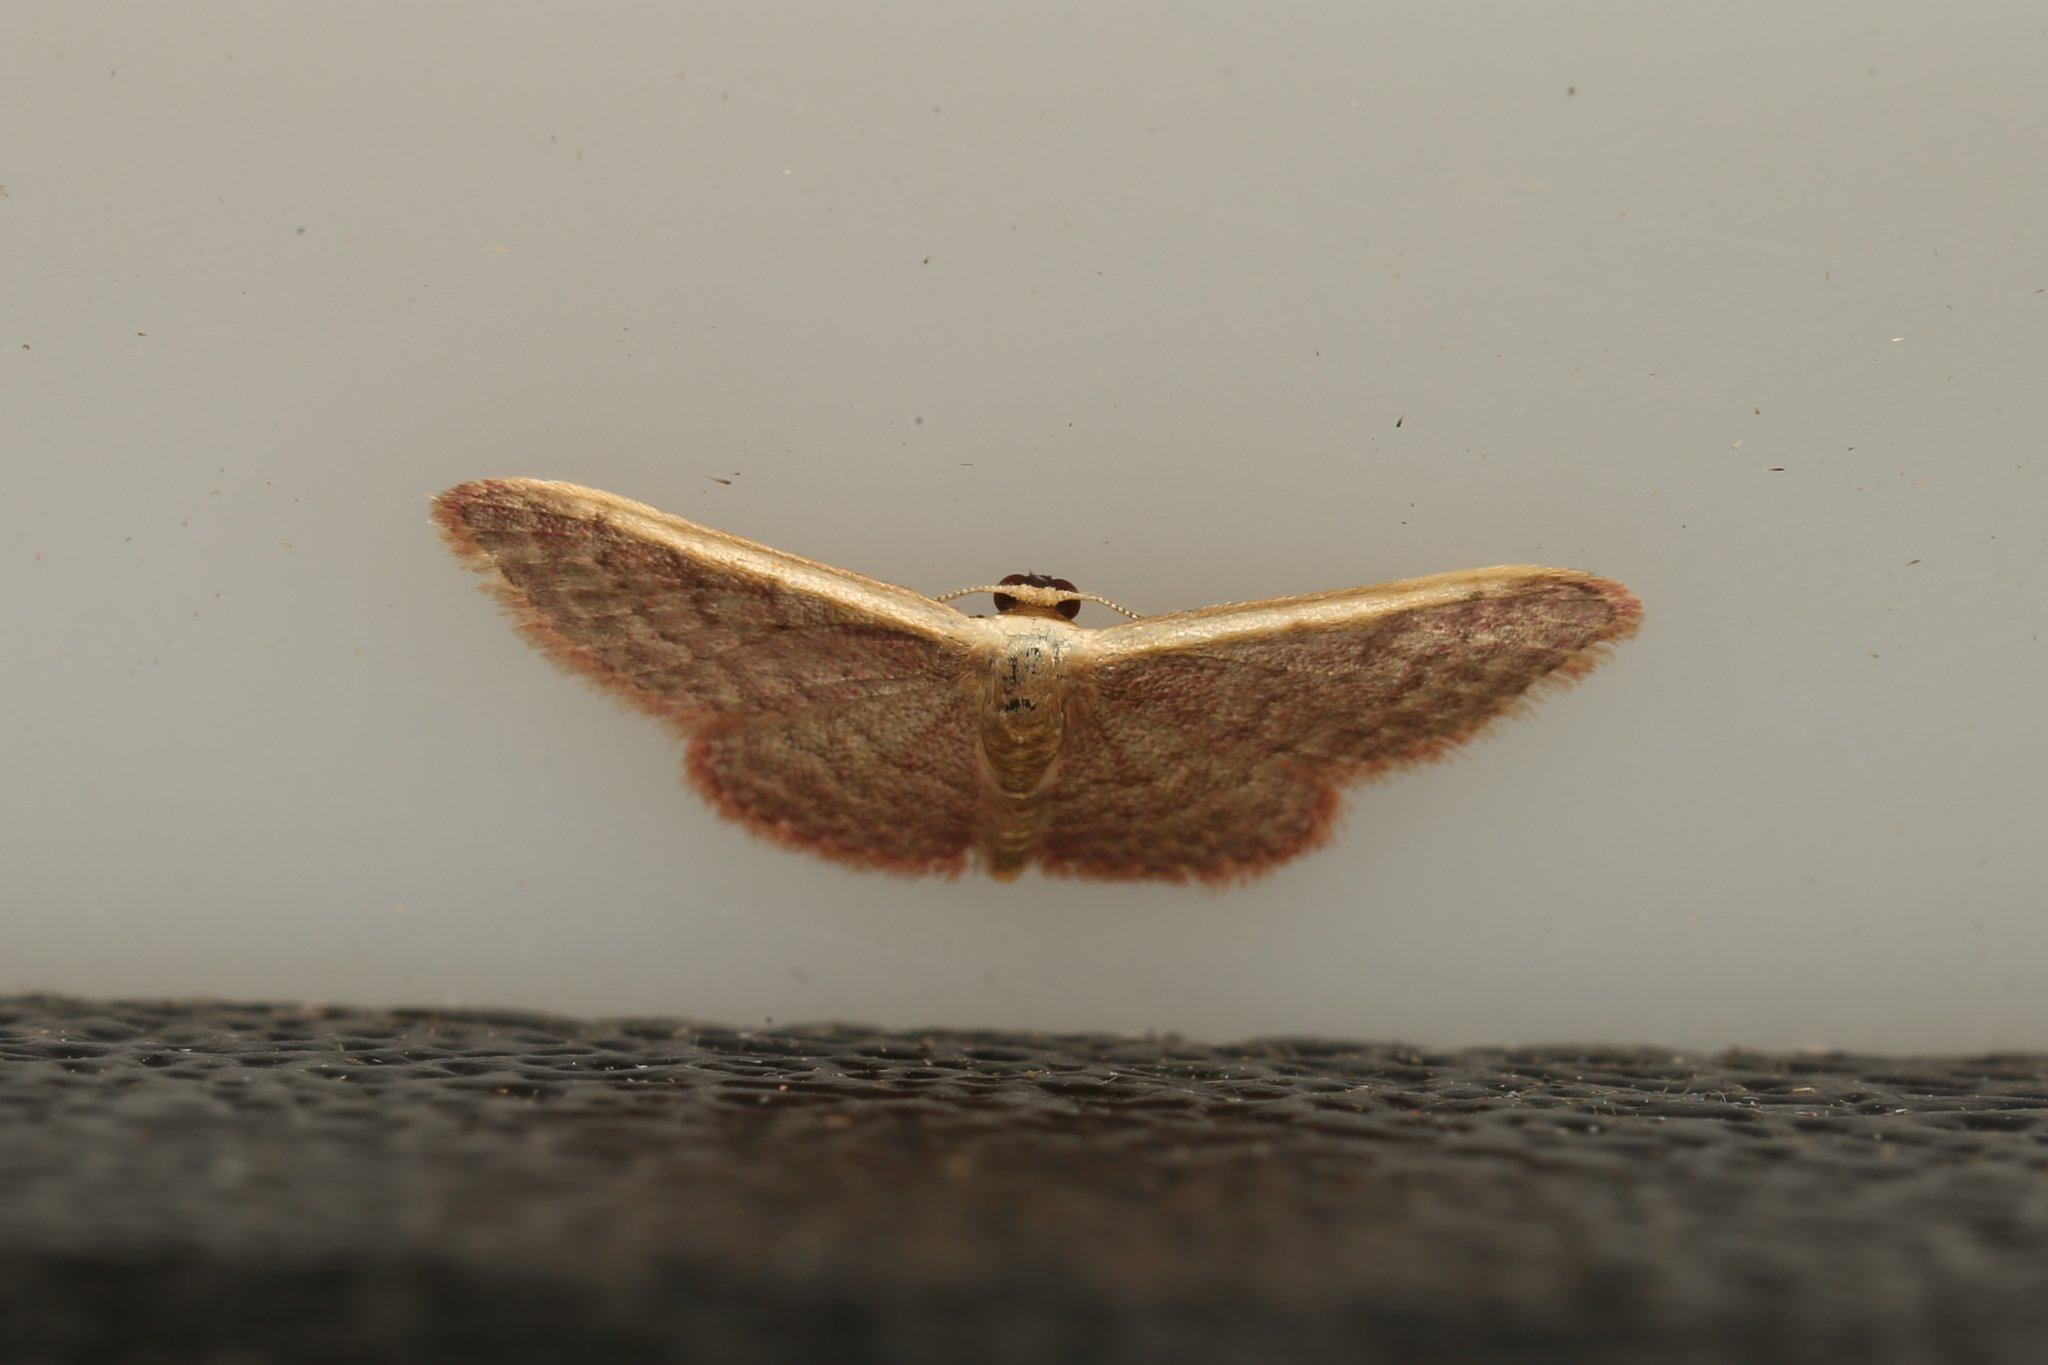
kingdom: Animalia
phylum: Arthropoda
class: Insecta
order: Lepidoptera
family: Geometridae
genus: Idaea
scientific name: Idaea costaria
